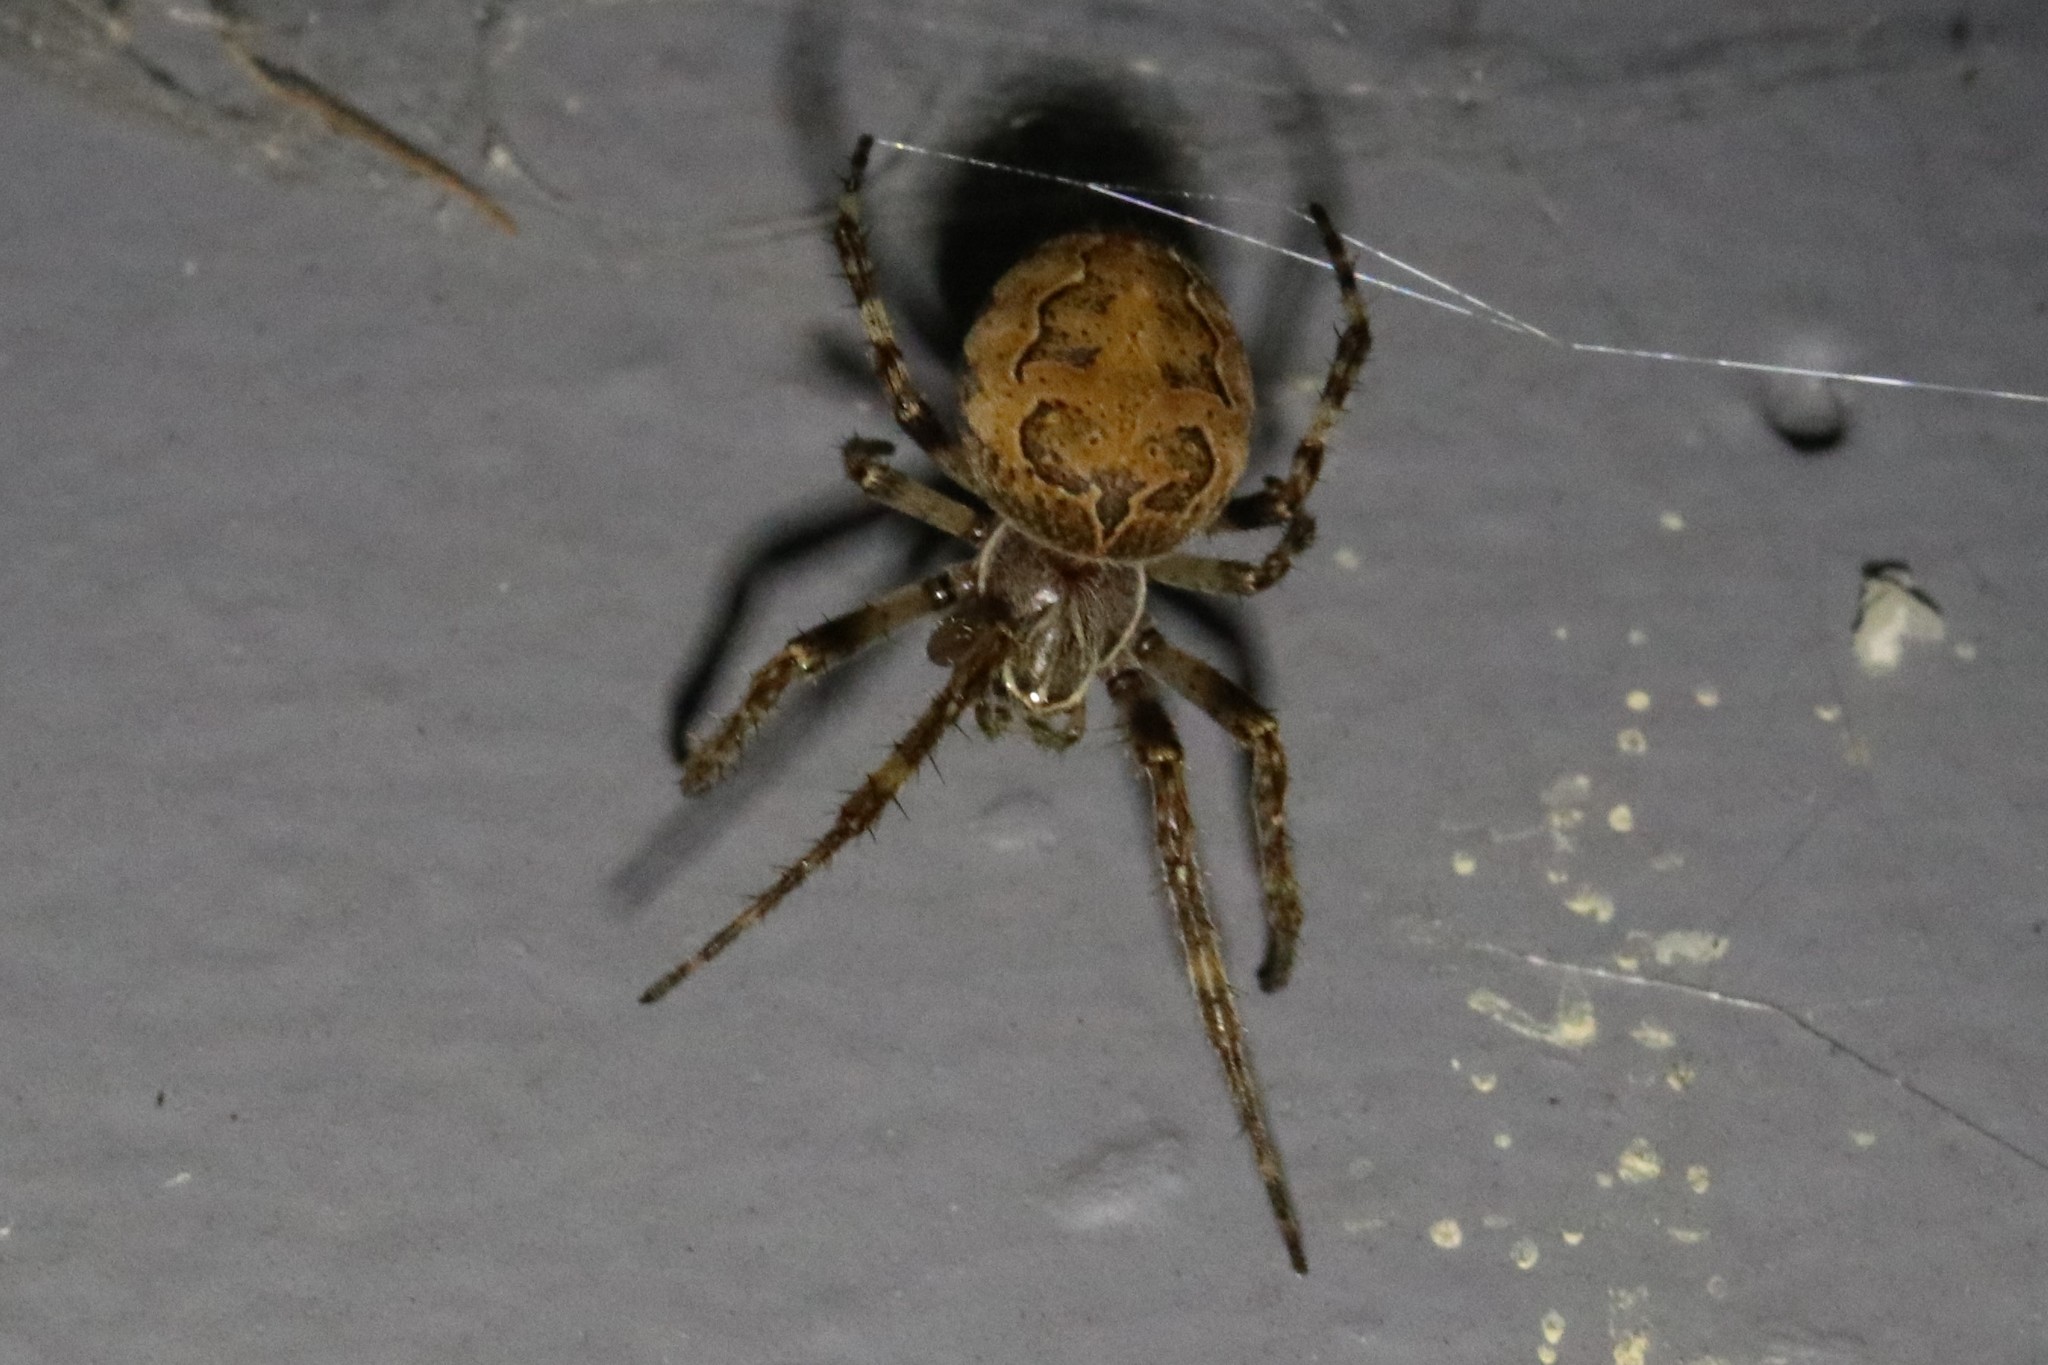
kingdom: Animalia
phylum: Arthropoda
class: Arachnida
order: Araneae
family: Araneidae
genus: Larinioides
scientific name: Larinioides sclopetarius
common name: Bridge orbweaver
